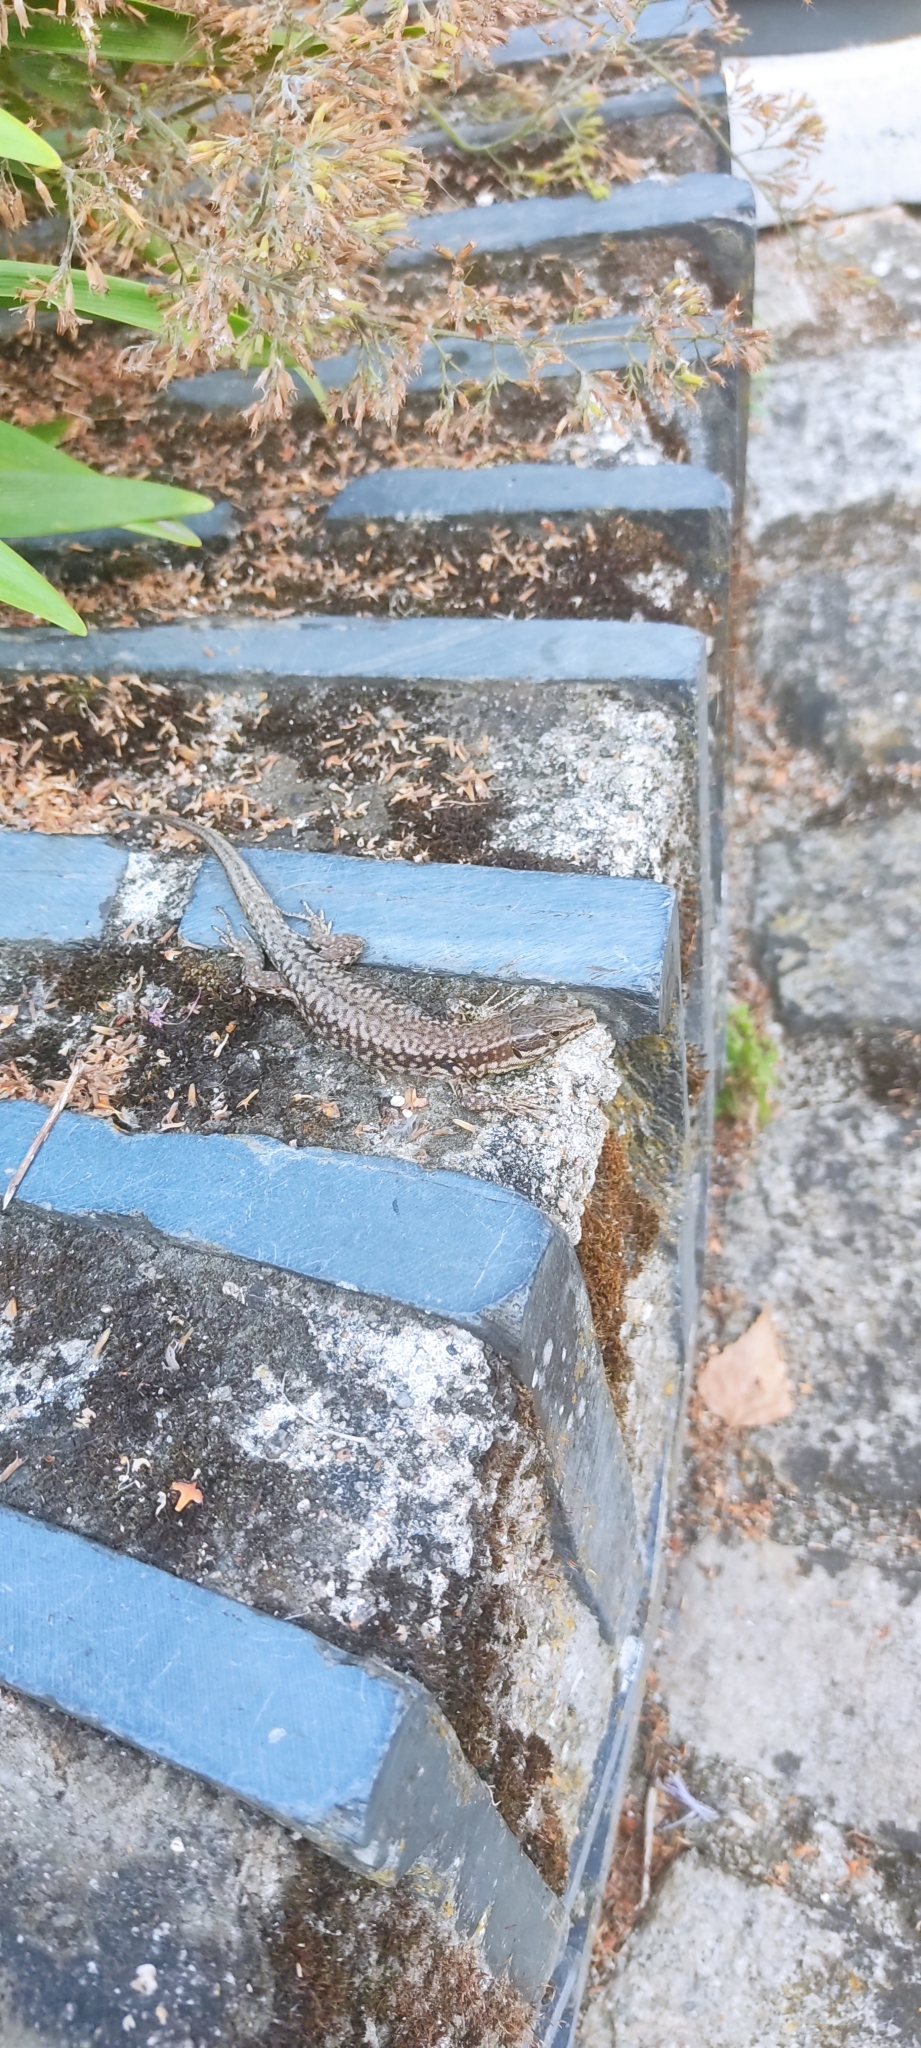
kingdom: Animalia
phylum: Chordata
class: Squamata
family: Lacertidae
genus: Podarcis
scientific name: Podarcis muralis
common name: Common wall lizard
